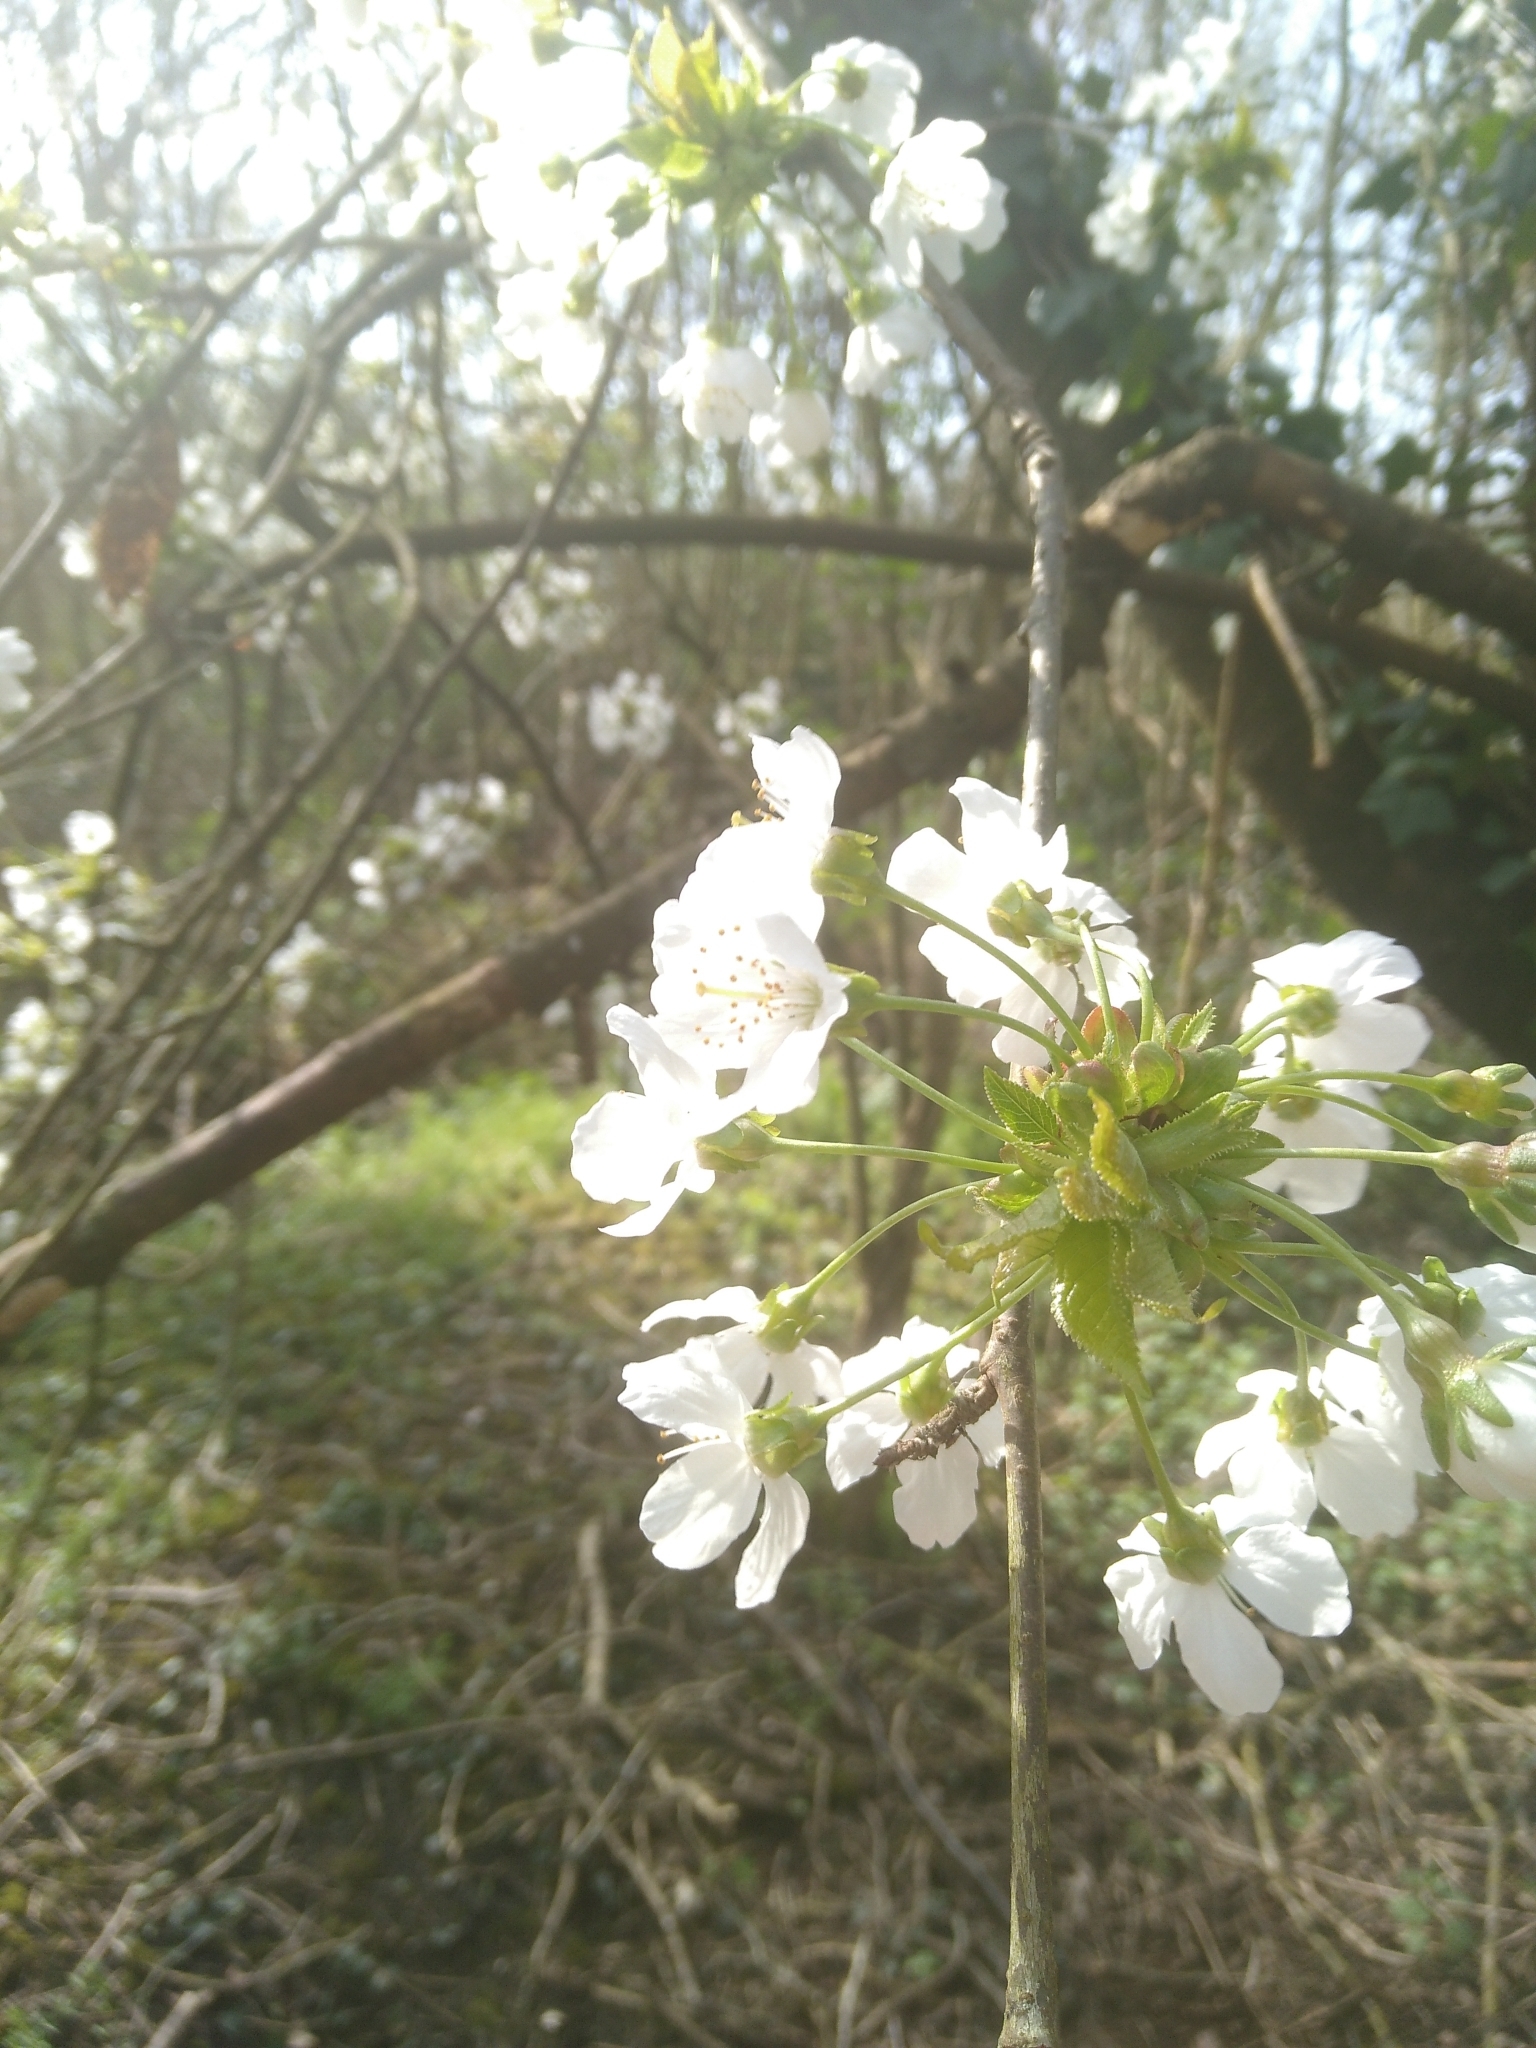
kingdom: Plantae
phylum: Tracheophyta
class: Magnoliopsida
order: Rosales
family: Rosaceae
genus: Prunus
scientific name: Prunus avium
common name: Sweet cherry
